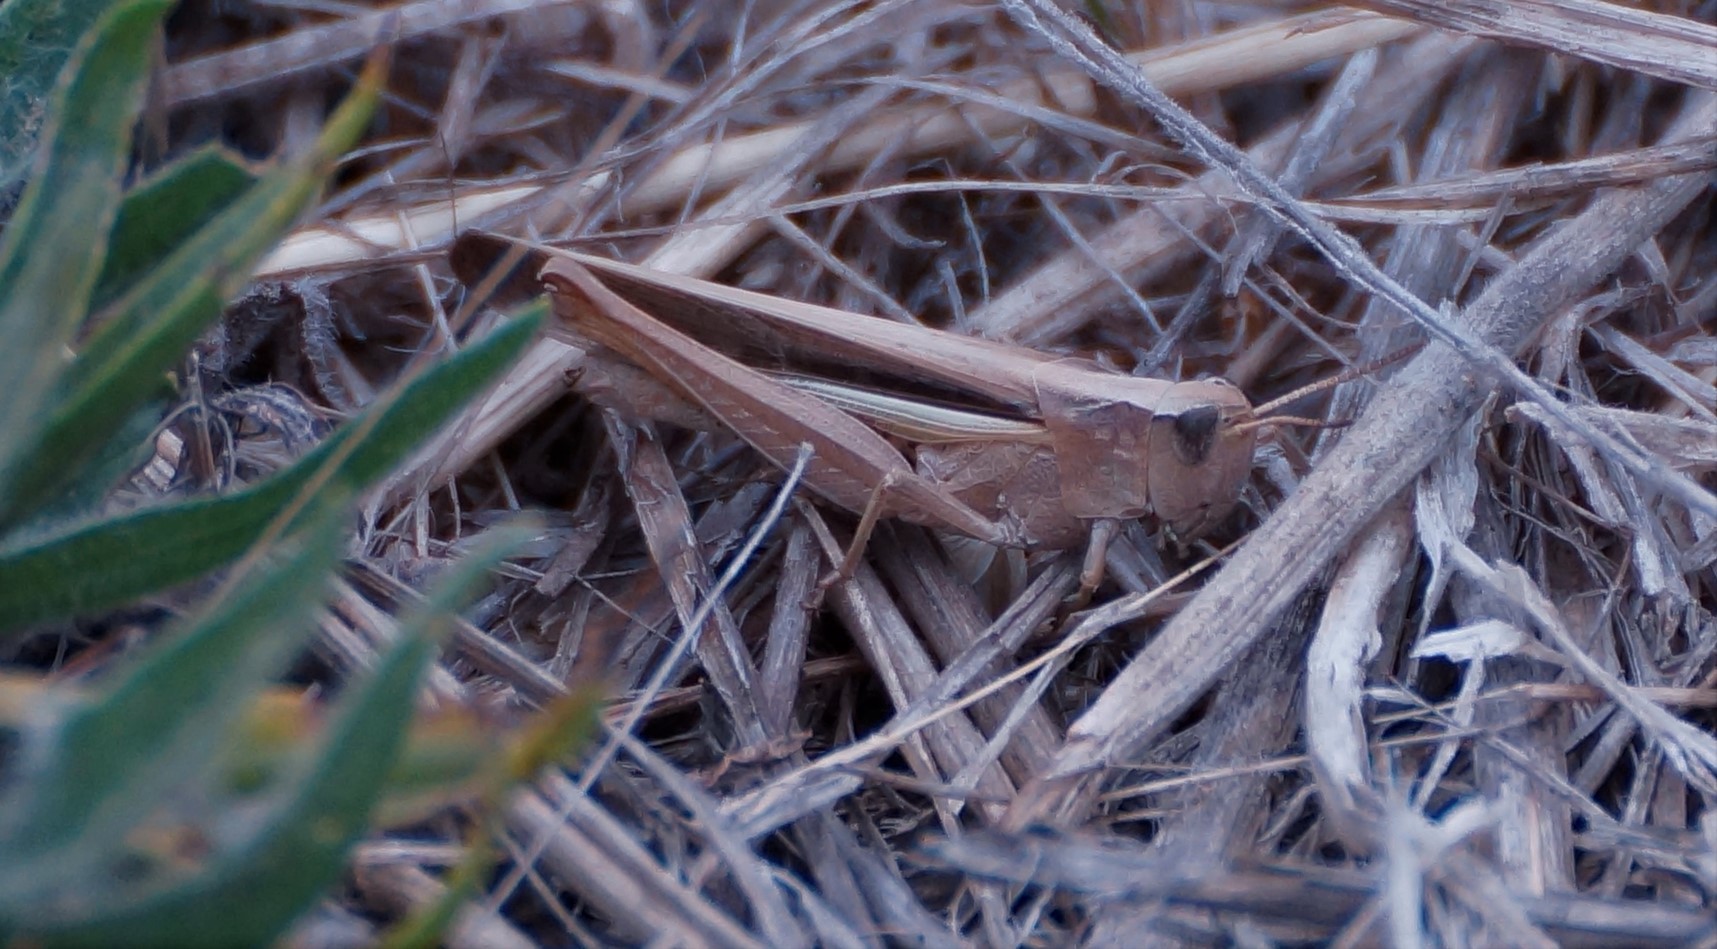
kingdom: Animalia
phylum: Arthropoda
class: Insecta
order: Orthoptera
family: Acrididae
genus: Schizobothrus
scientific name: Schizobothrus flavovittatus
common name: Disappearing grasshopper
